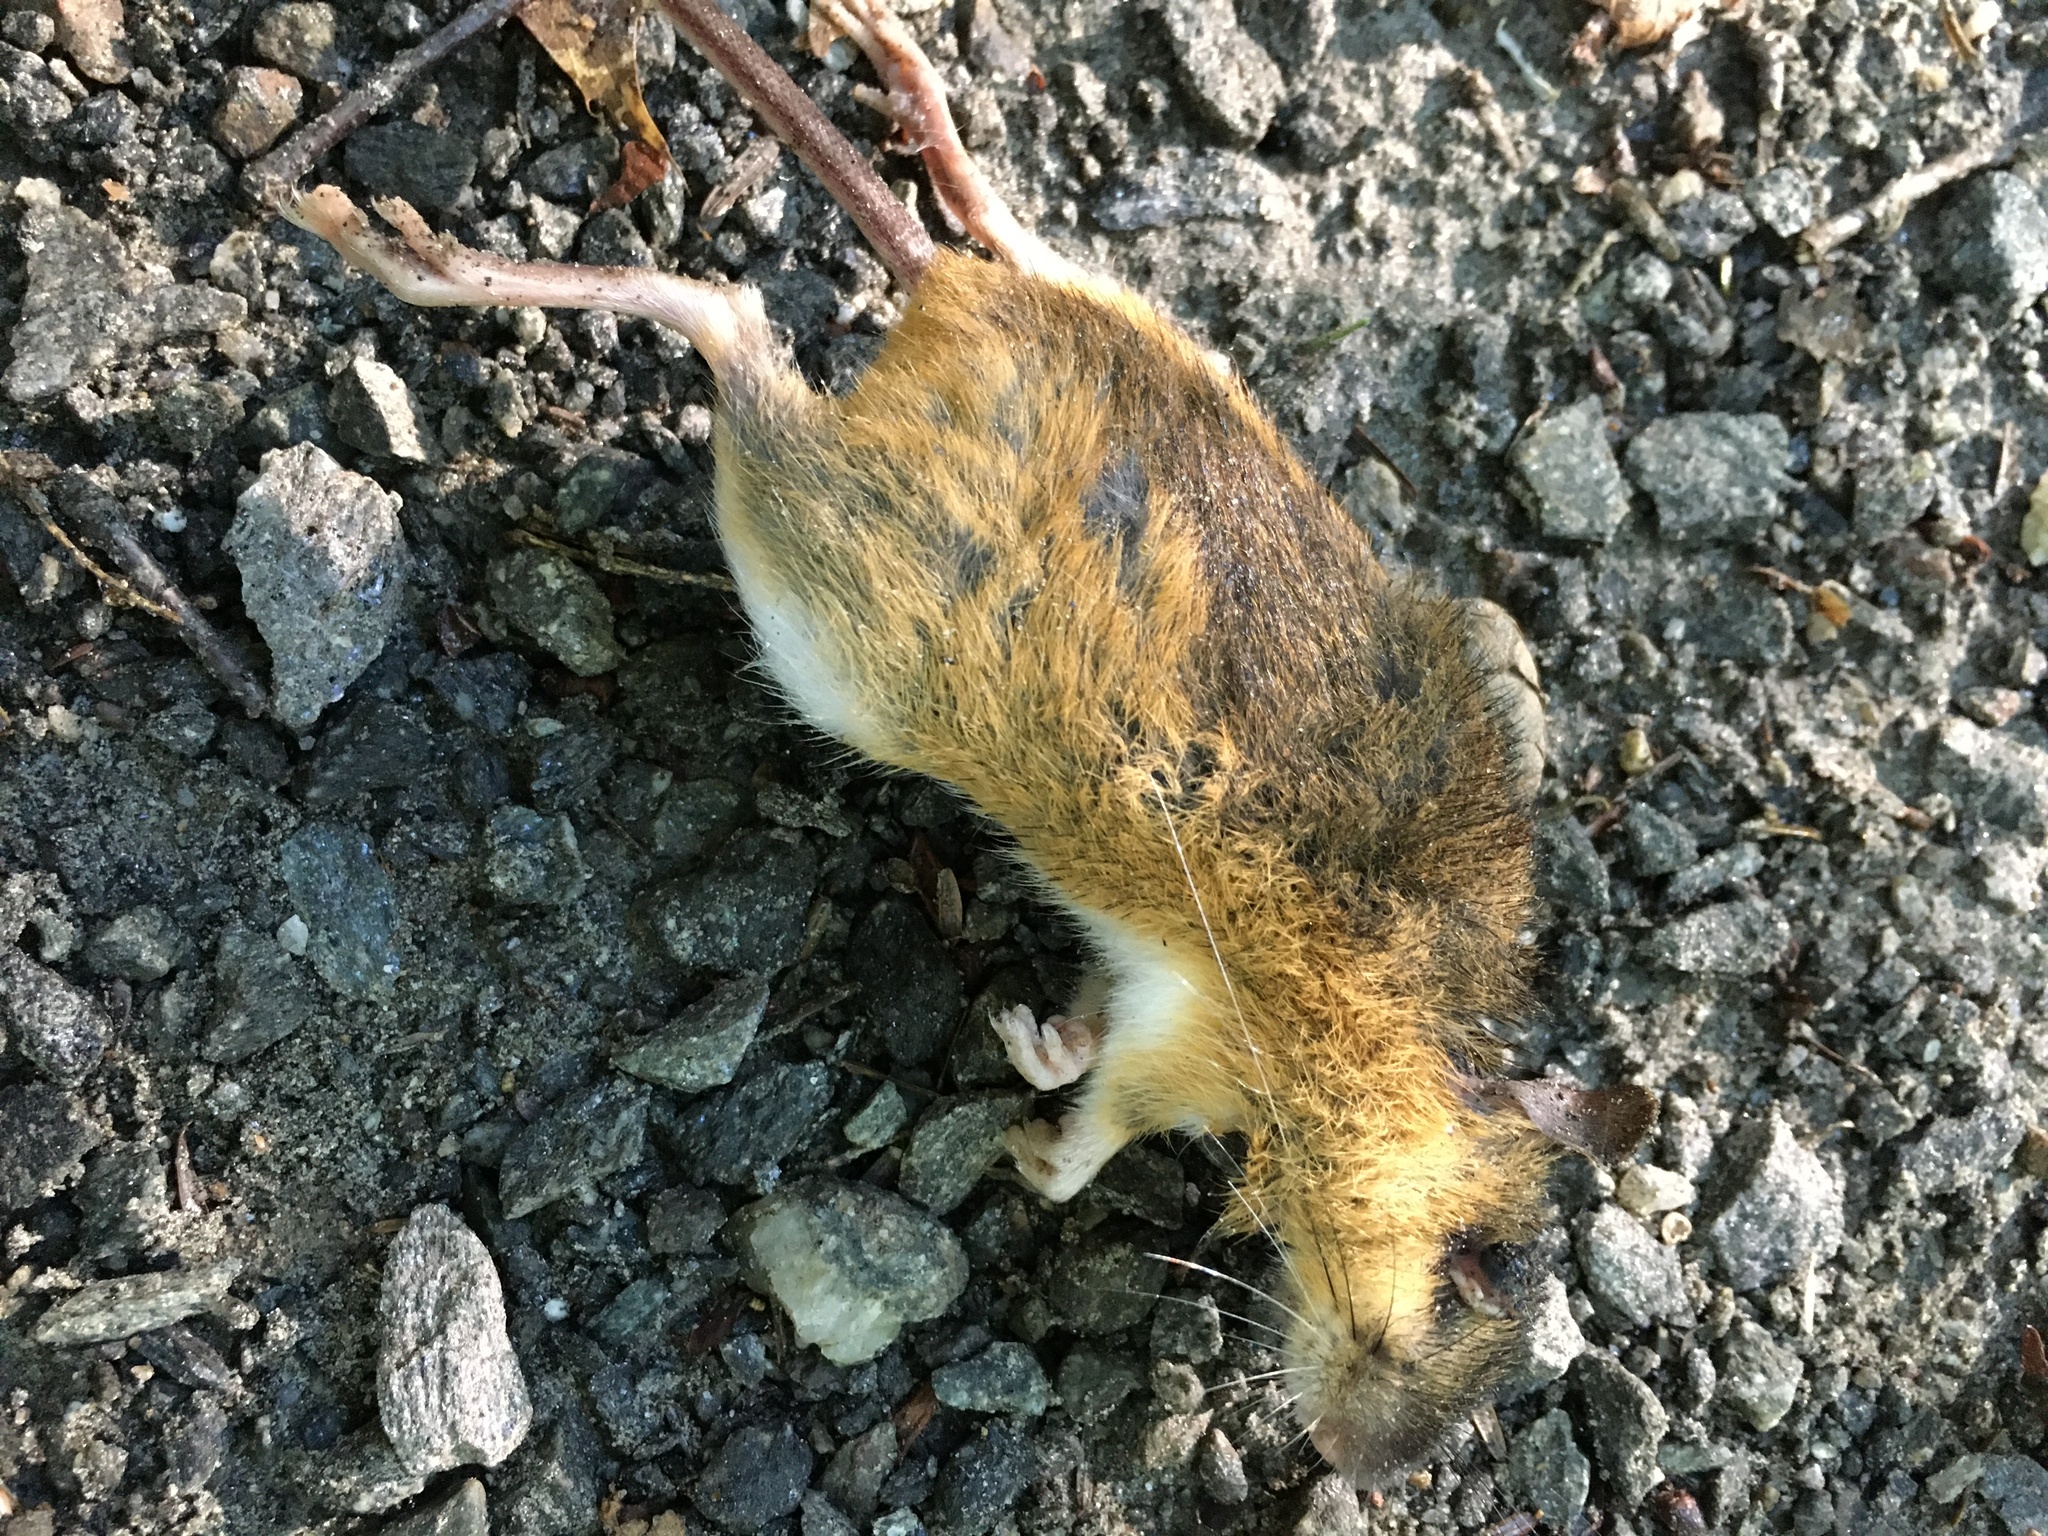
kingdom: Animalia
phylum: Chordata
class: Mammalia
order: Rodentia
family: Dipodidae
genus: Napaeozapus
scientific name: Napaeozapus insignis
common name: Woodland jumping mouse
